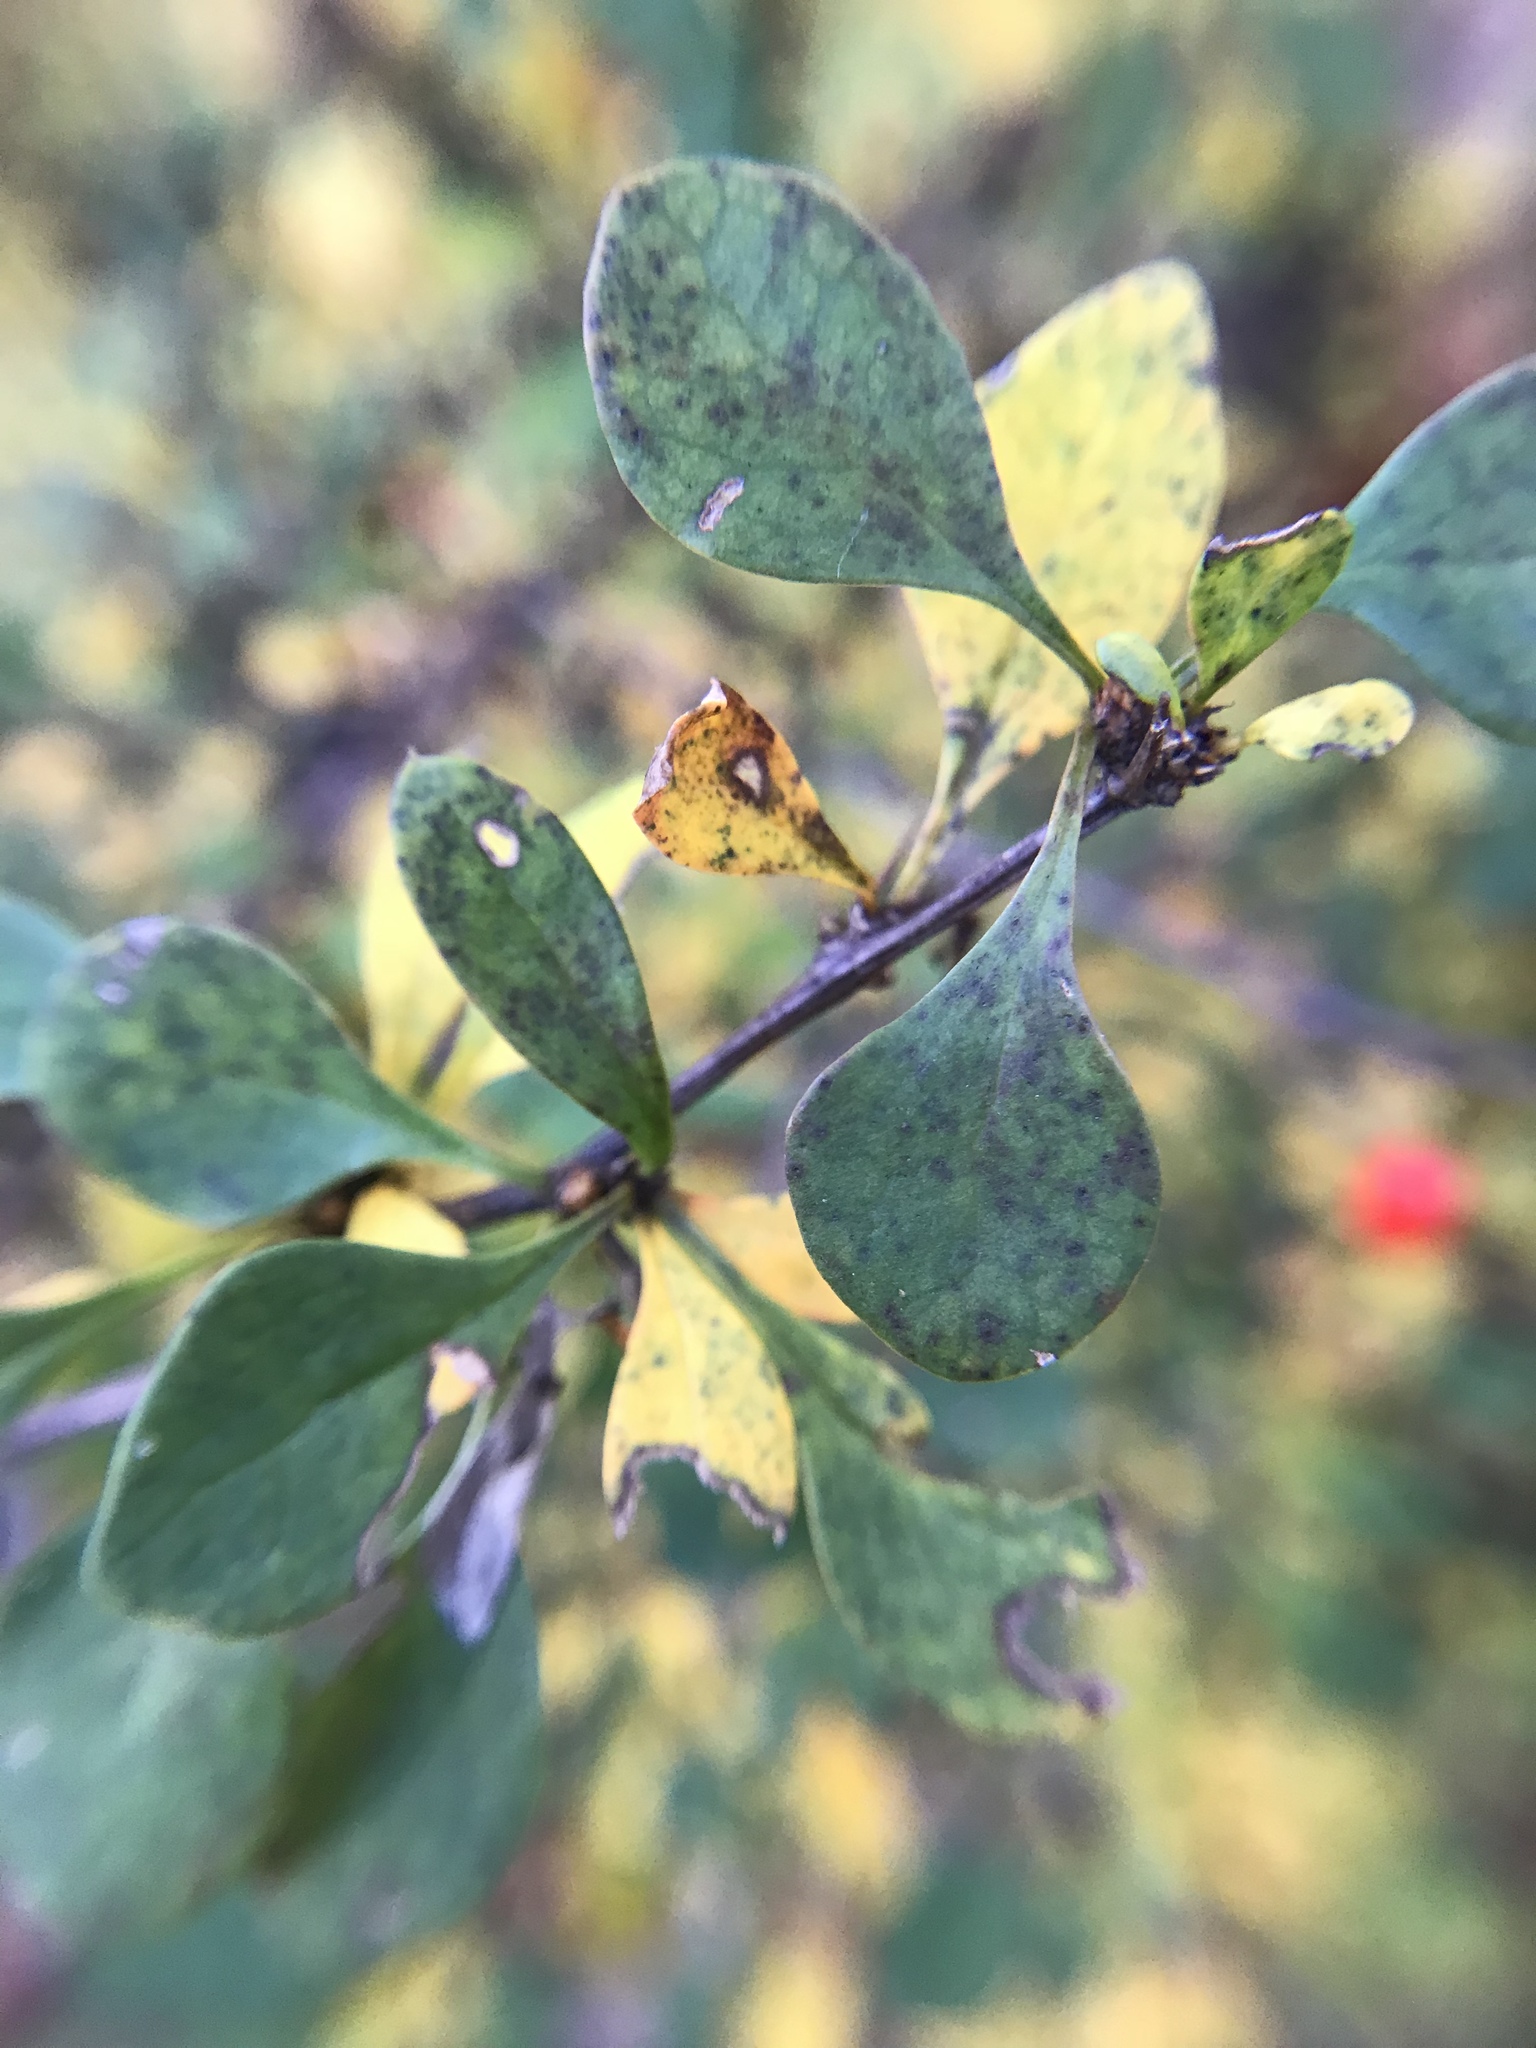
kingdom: Plantae
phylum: Tracheophyta
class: Magnoliopsida
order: Ranunculales
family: Berberidaceae
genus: Berberis
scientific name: Berberis thunbergii
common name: Japanese barberry
